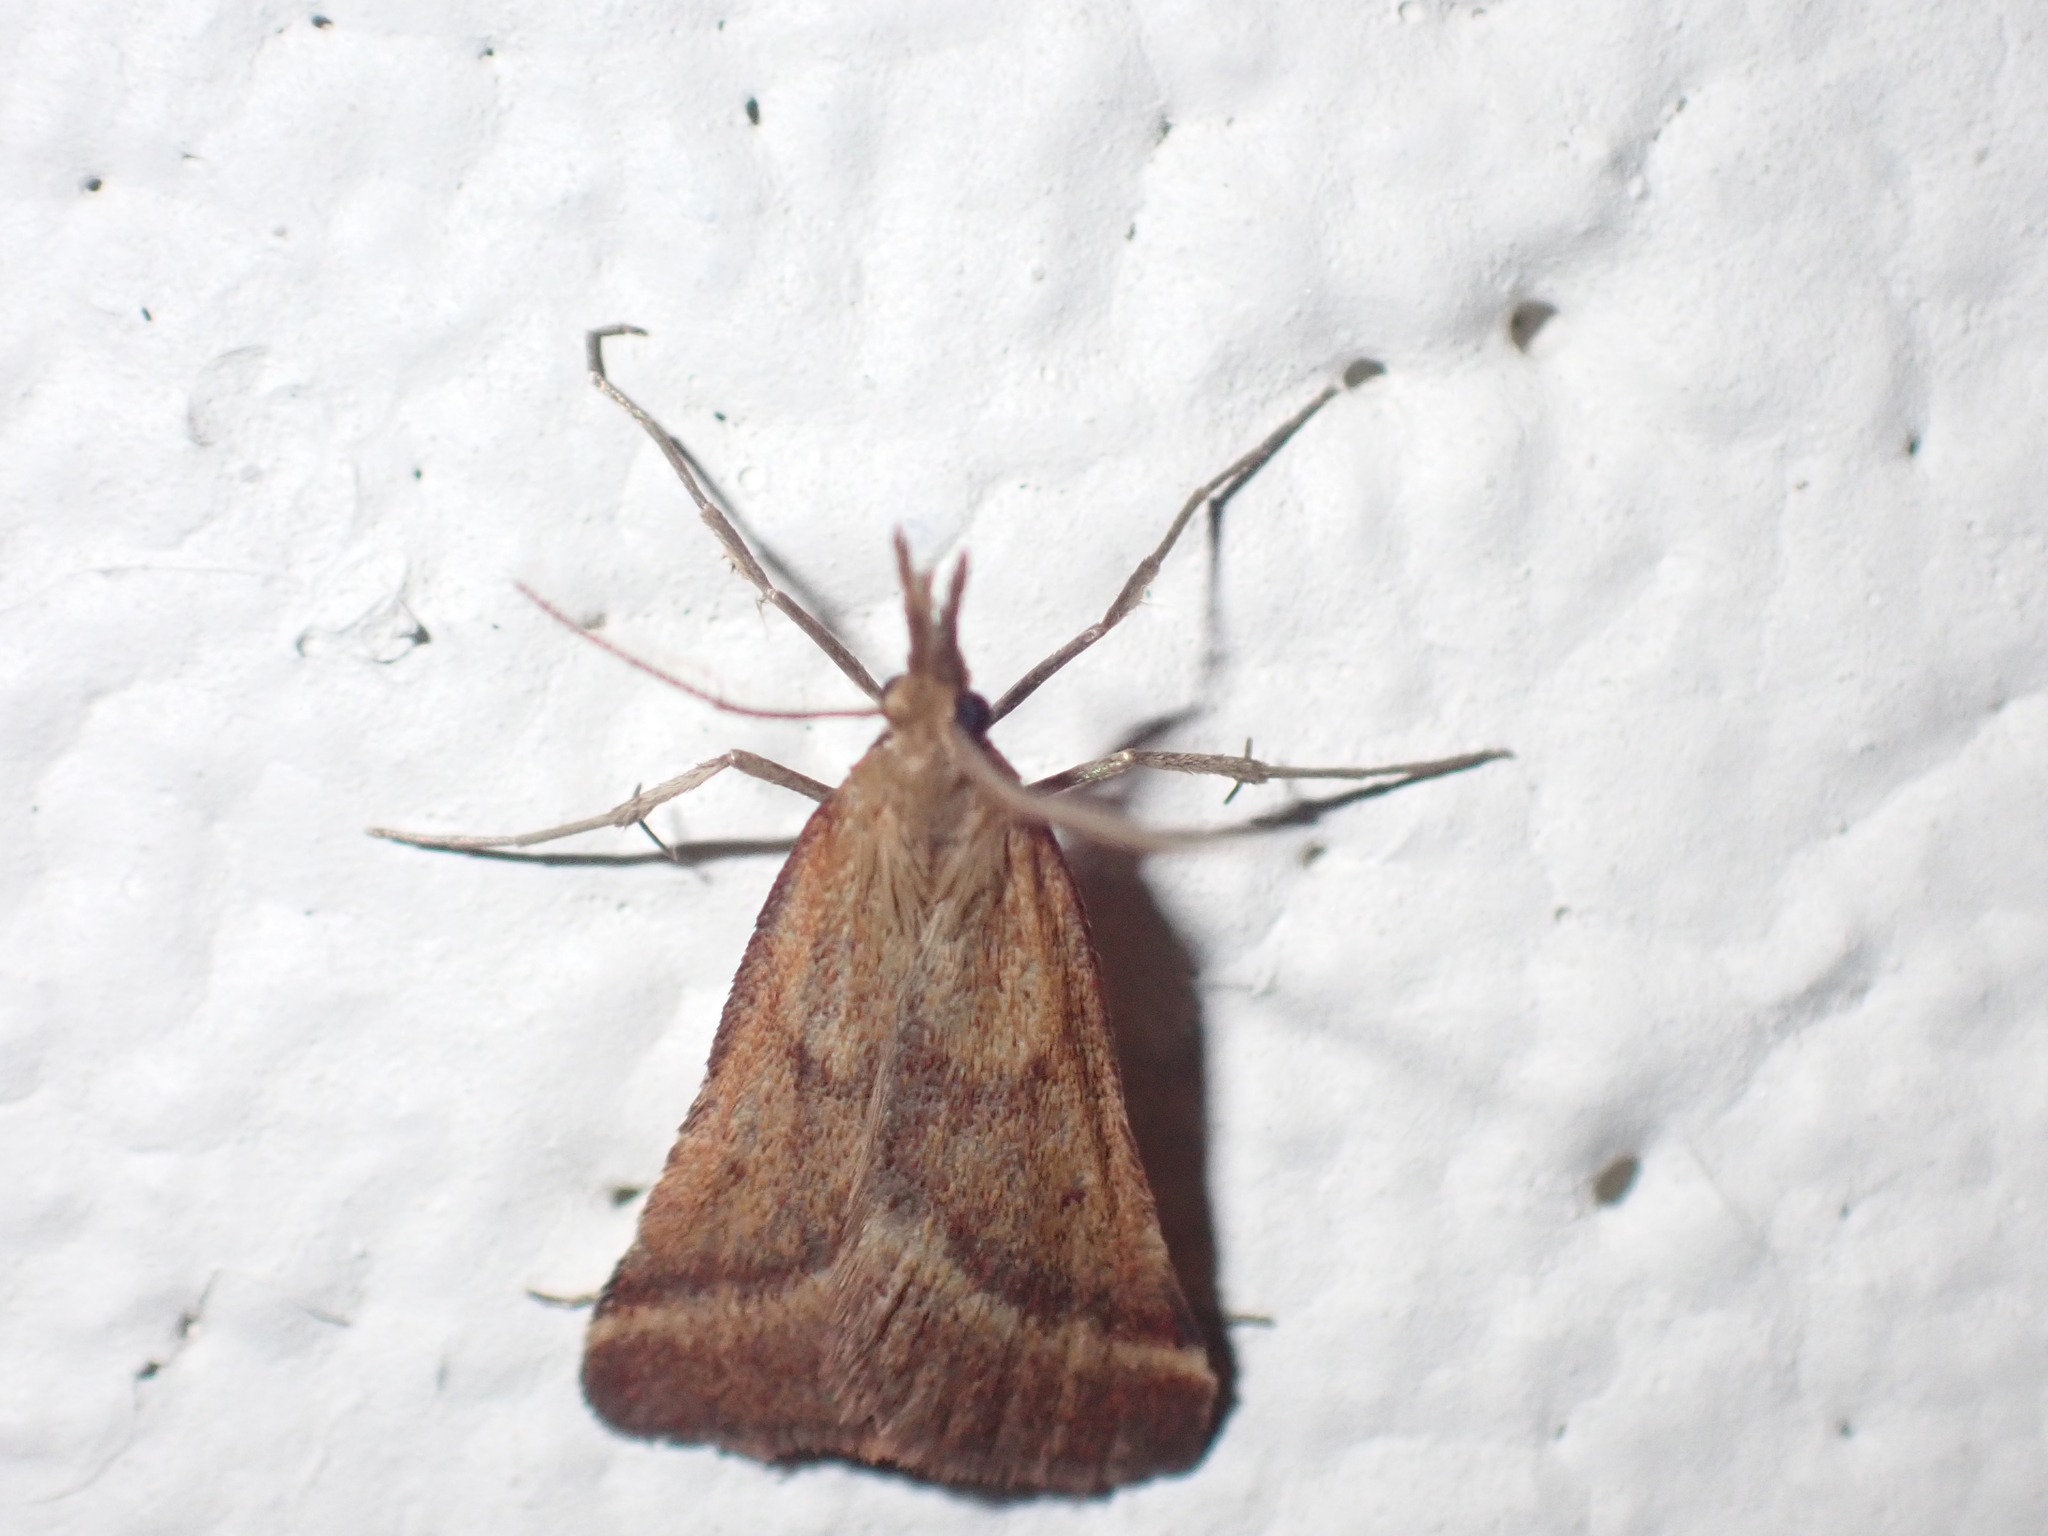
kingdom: Animalia
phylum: Arthropoda
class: Insecta
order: Lepidoptera
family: Pyralidae
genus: Synaphe
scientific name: Synaphe punctalis
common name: Long-legged tabby
